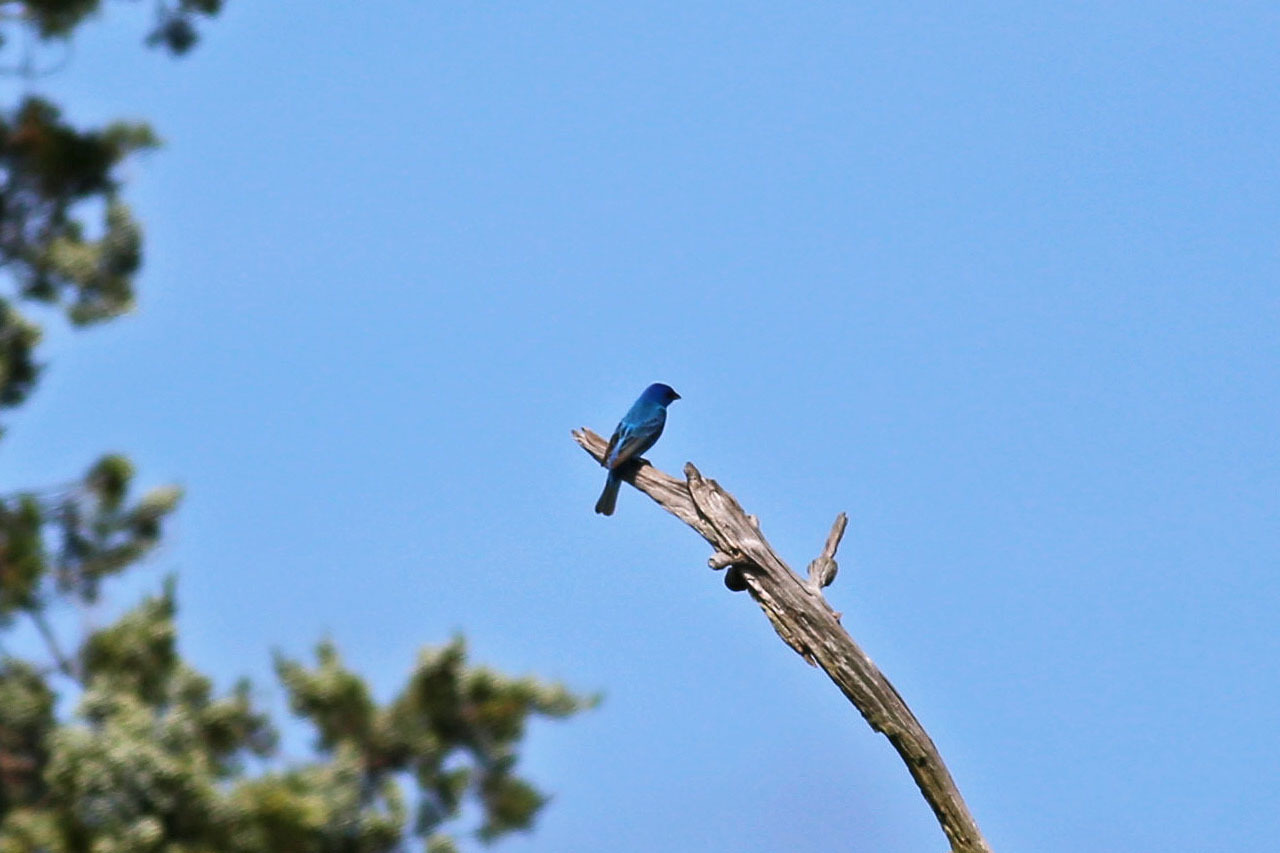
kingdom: Animalia
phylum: Chordata
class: Aves
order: Passeriformes
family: Cardinalidae
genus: Passerina
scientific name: Passerina cyanea
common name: Indigo bunting
